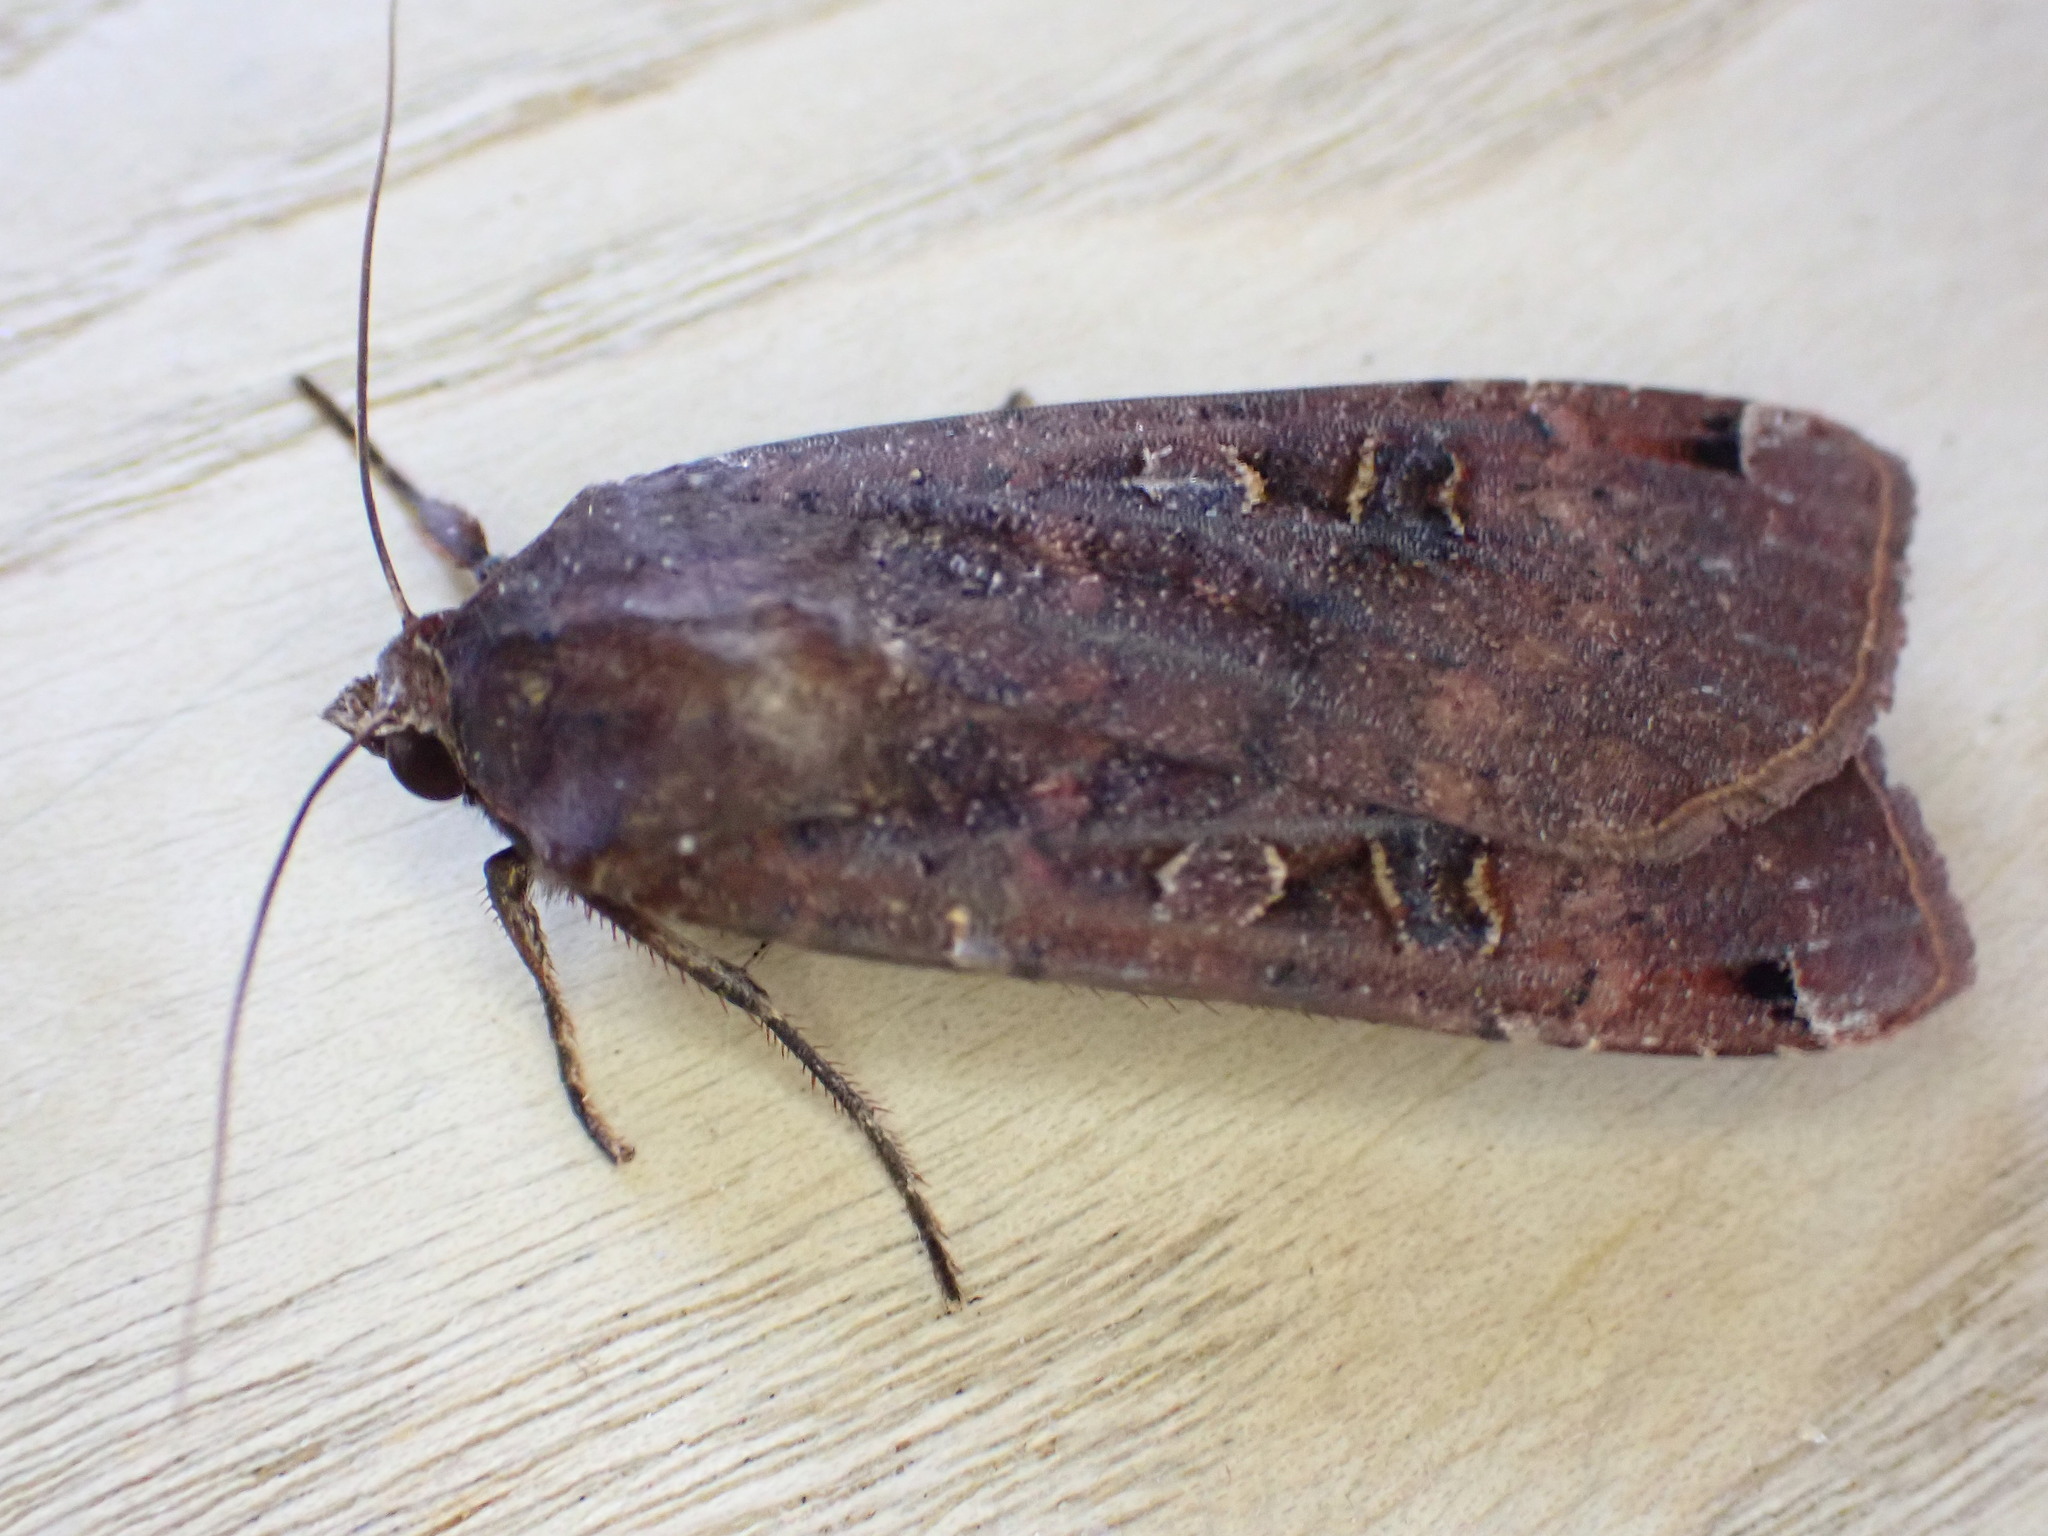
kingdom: Animalia
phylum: Arthropoda
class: Insecta
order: Lepidoptera
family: Noctuidae
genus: Noctua
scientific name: Noctua pronuba
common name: Large yellow underwing
